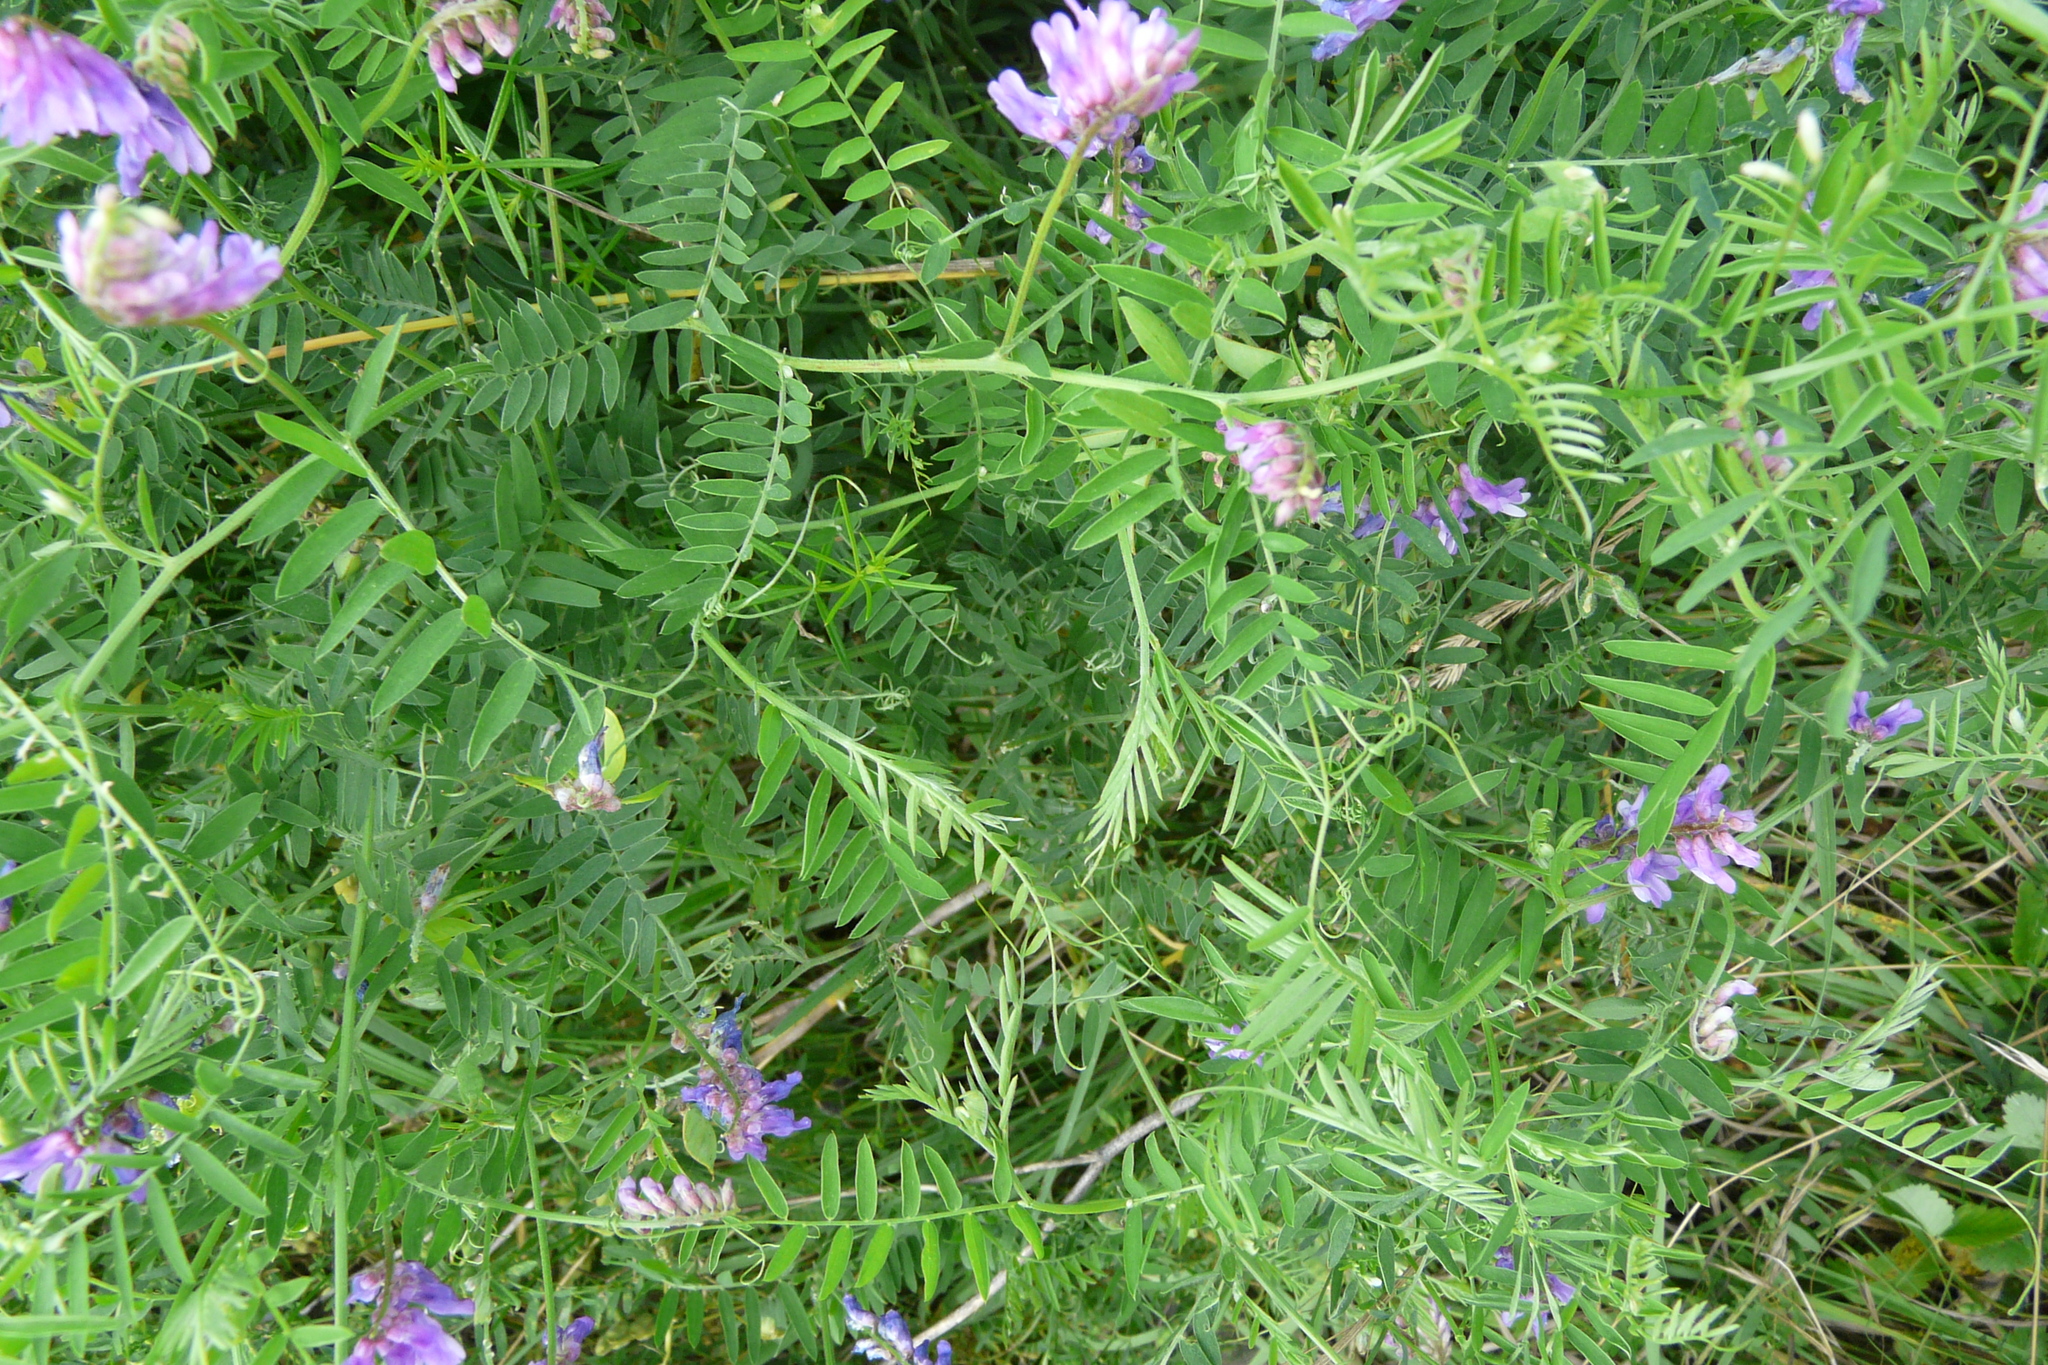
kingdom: Plantae
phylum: Tracheophyta
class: Magnoliopsida
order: Fabales
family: Fabaceae
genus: Vicia
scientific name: Vicia cracca
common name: Bird vetch
